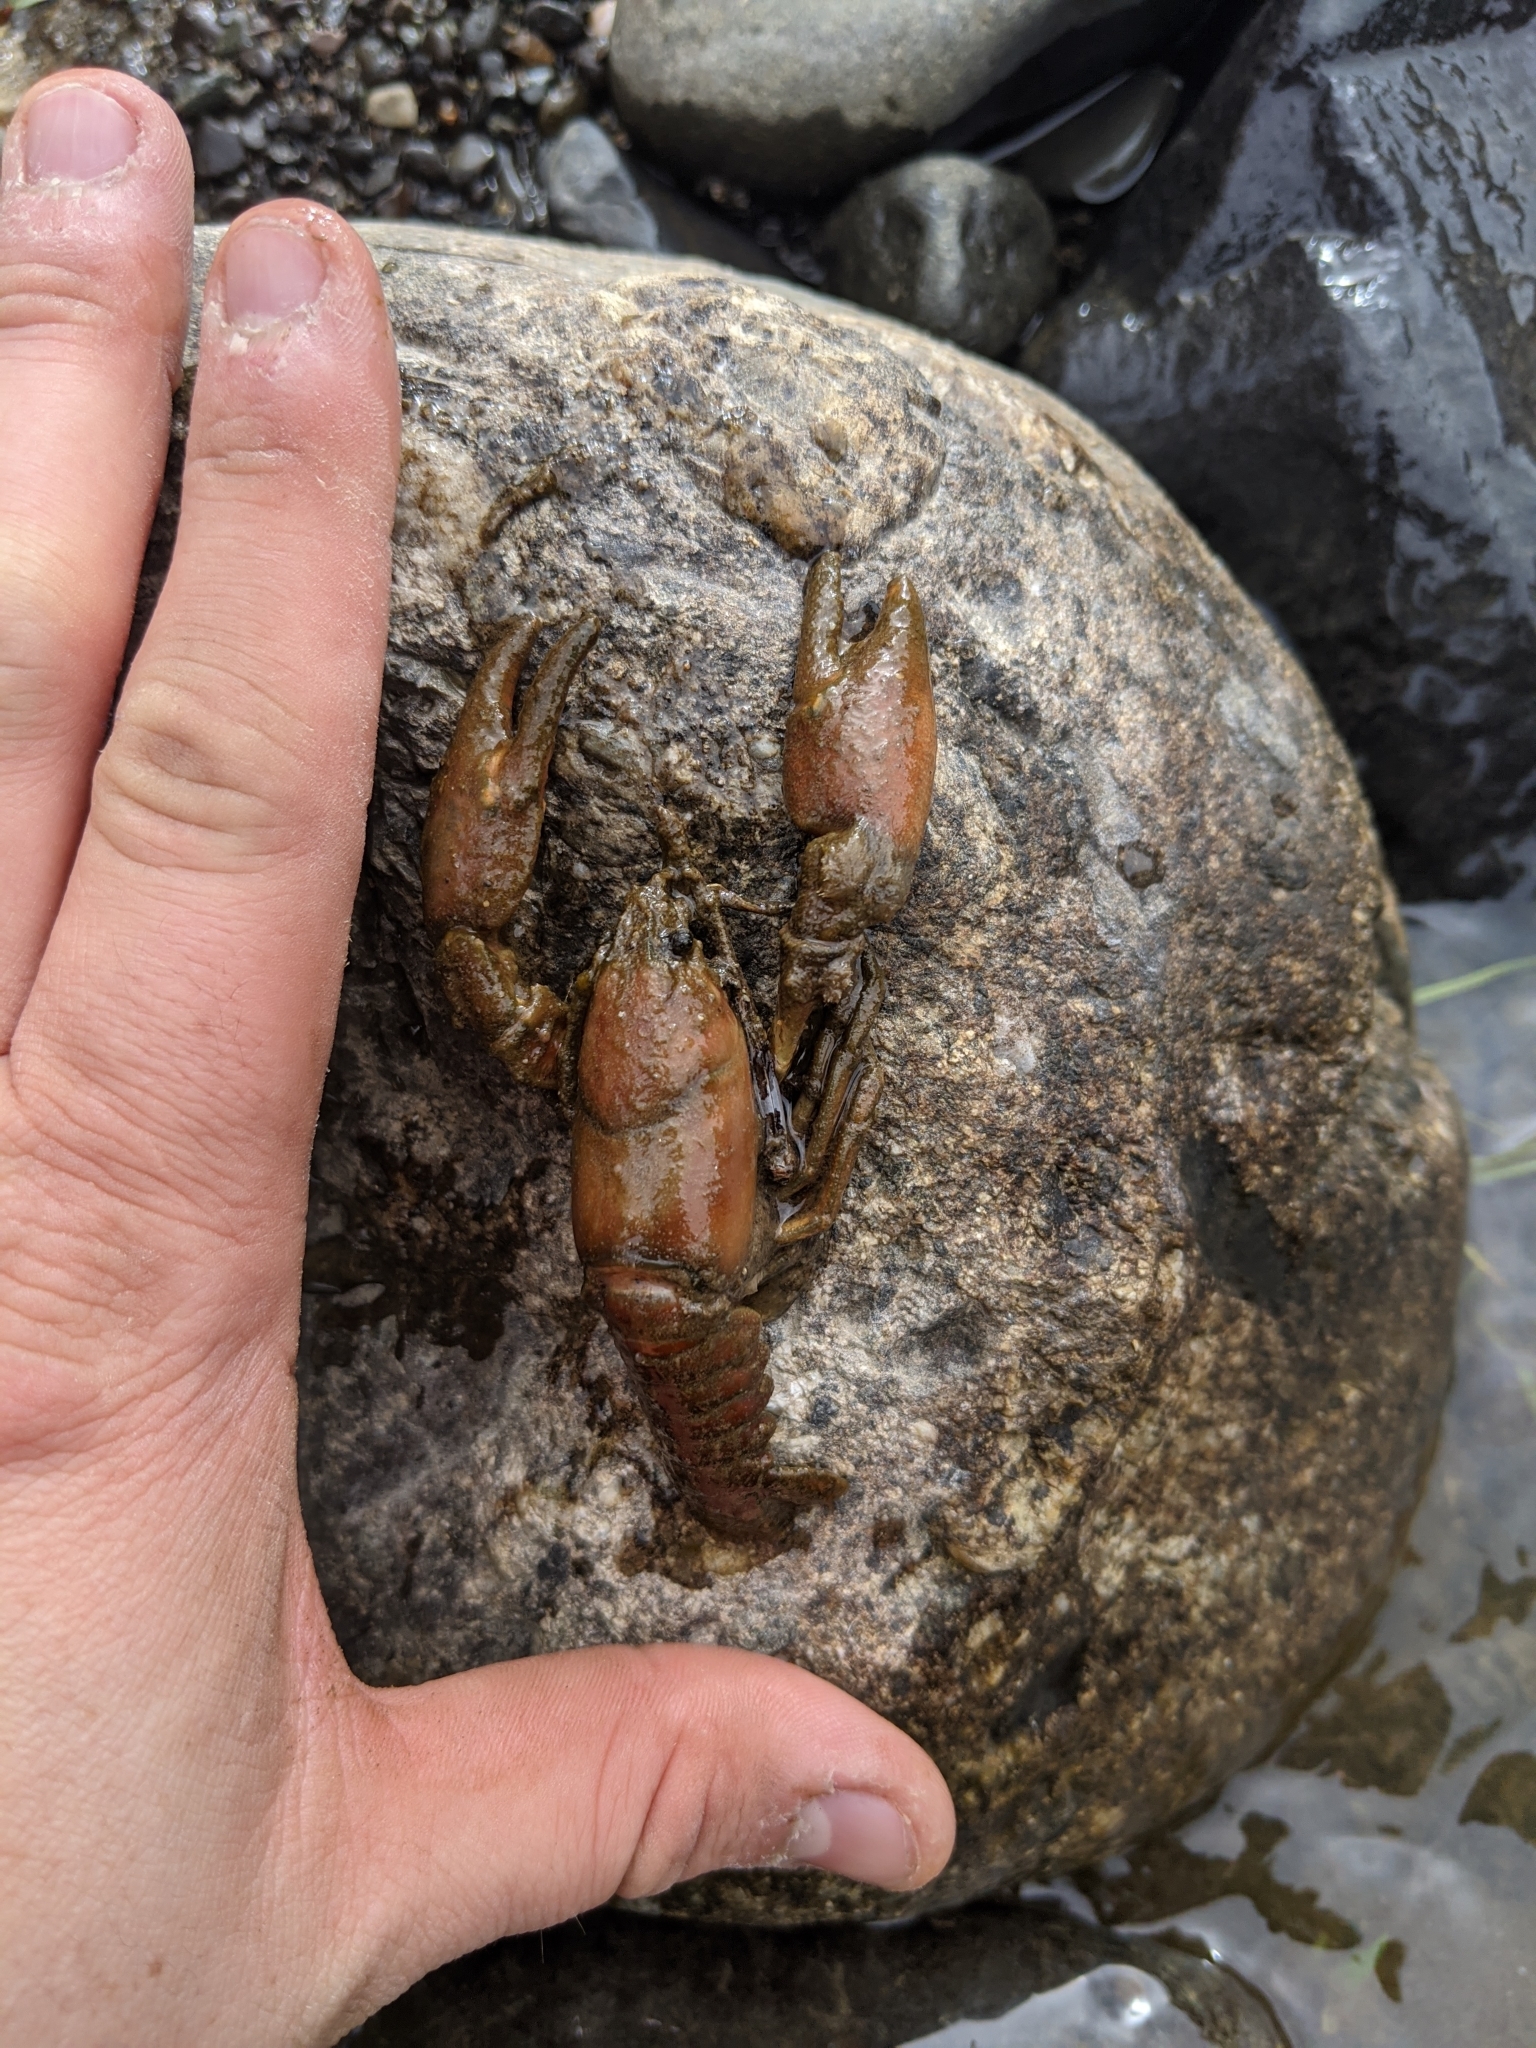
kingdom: Animalia
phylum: Arthropoda
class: Malacostraca
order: Decapoda
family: Astacidae
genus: Pacifastacus
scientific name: Pacifastacus leniusculus
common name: Signal crayfish
